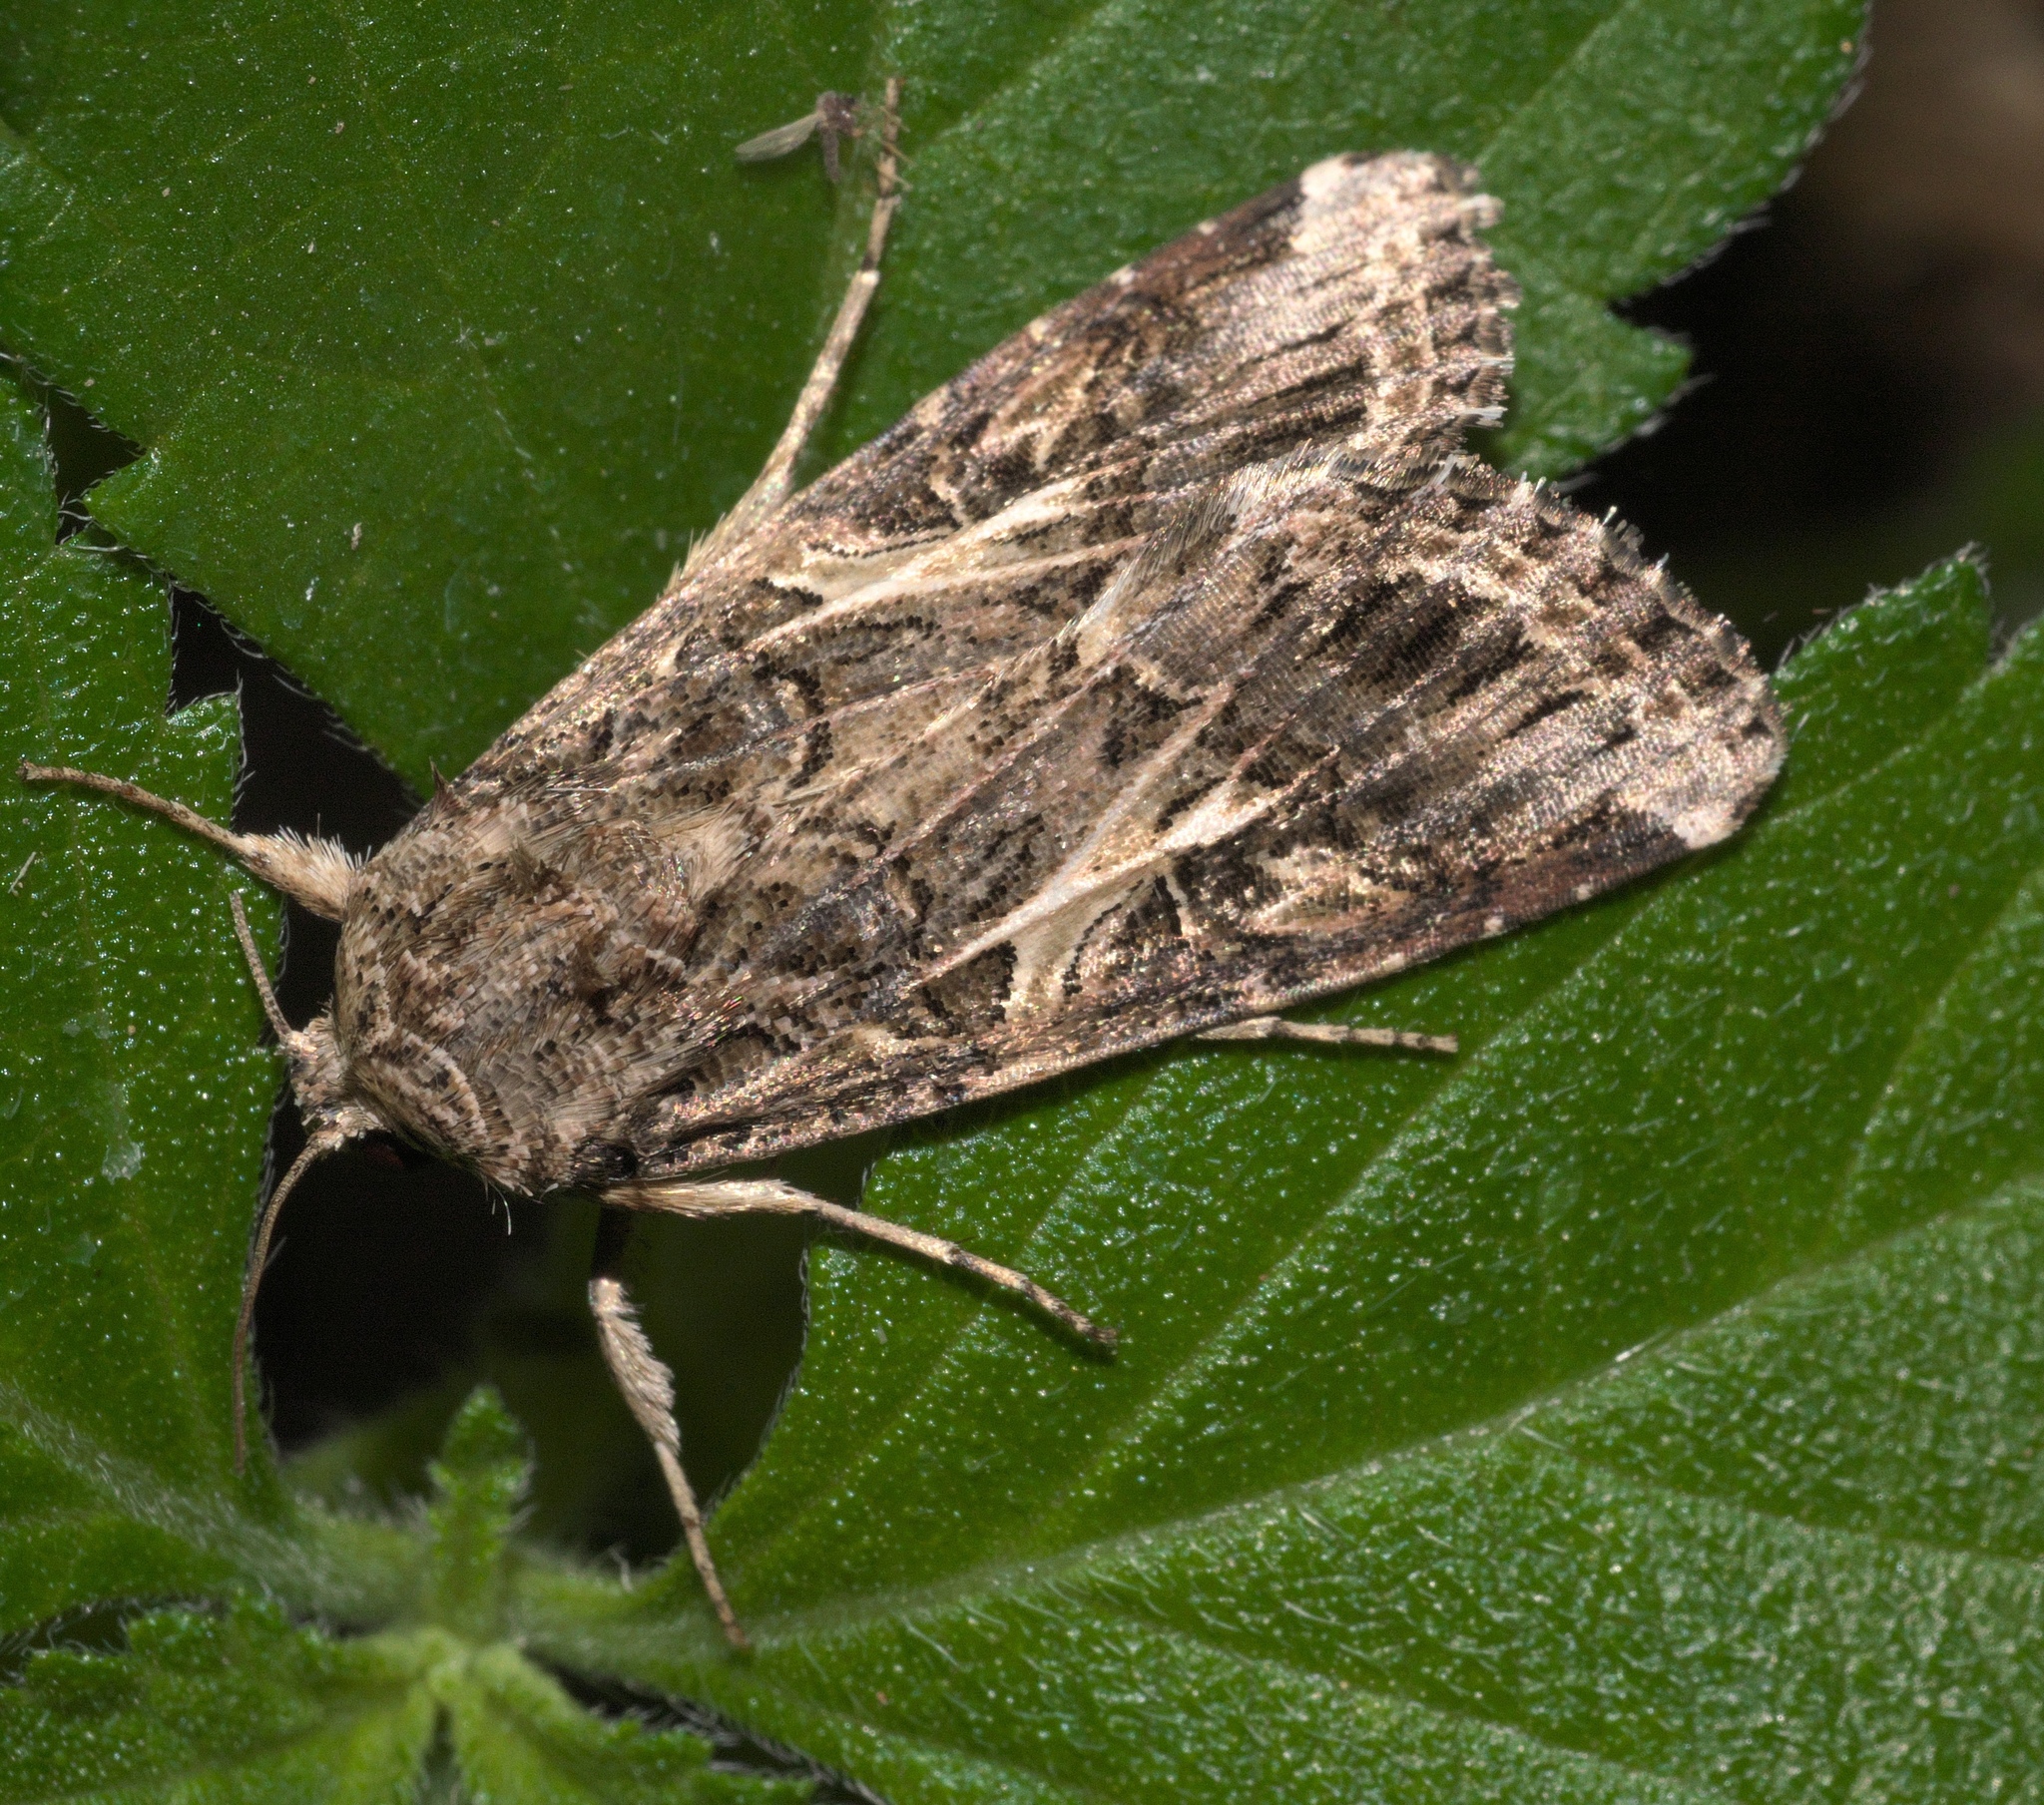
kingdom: Animalia
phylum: Arthropoda
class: Insecta
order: Lepidoptera
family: Noctuidae
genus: Spodoptera
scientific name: Spodoptera ornithogalli
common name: Yellow-striped armyworm
